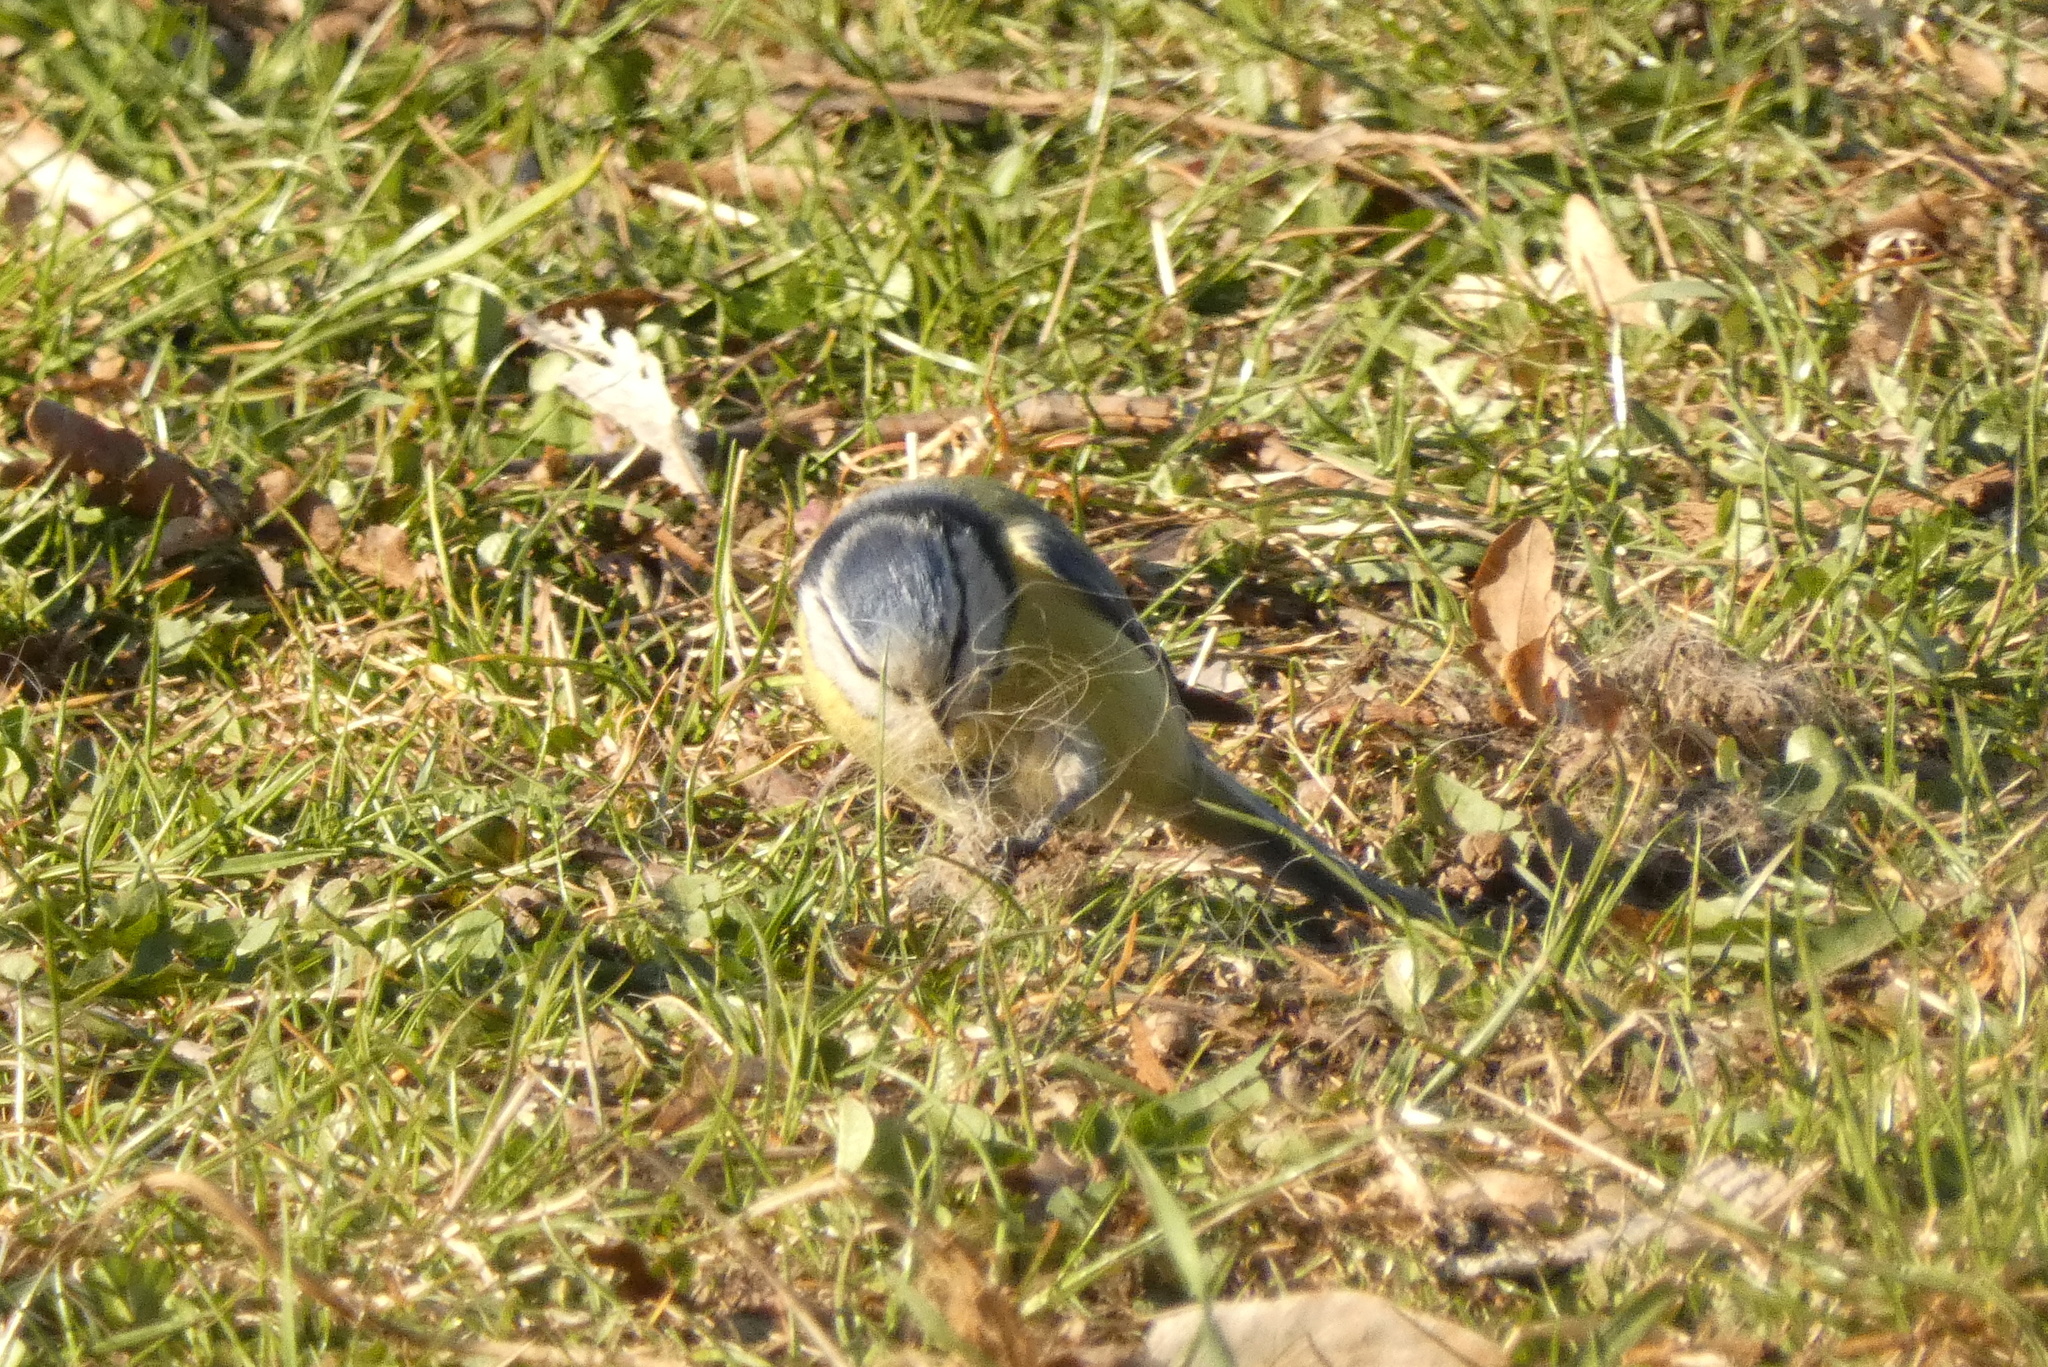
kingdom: Animalia
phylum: Chordata
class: Aves
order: Passeriformes
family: Paridae
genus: Cyanistes
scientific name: Cyanistes caeruleus
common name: Eurasian blue tit
